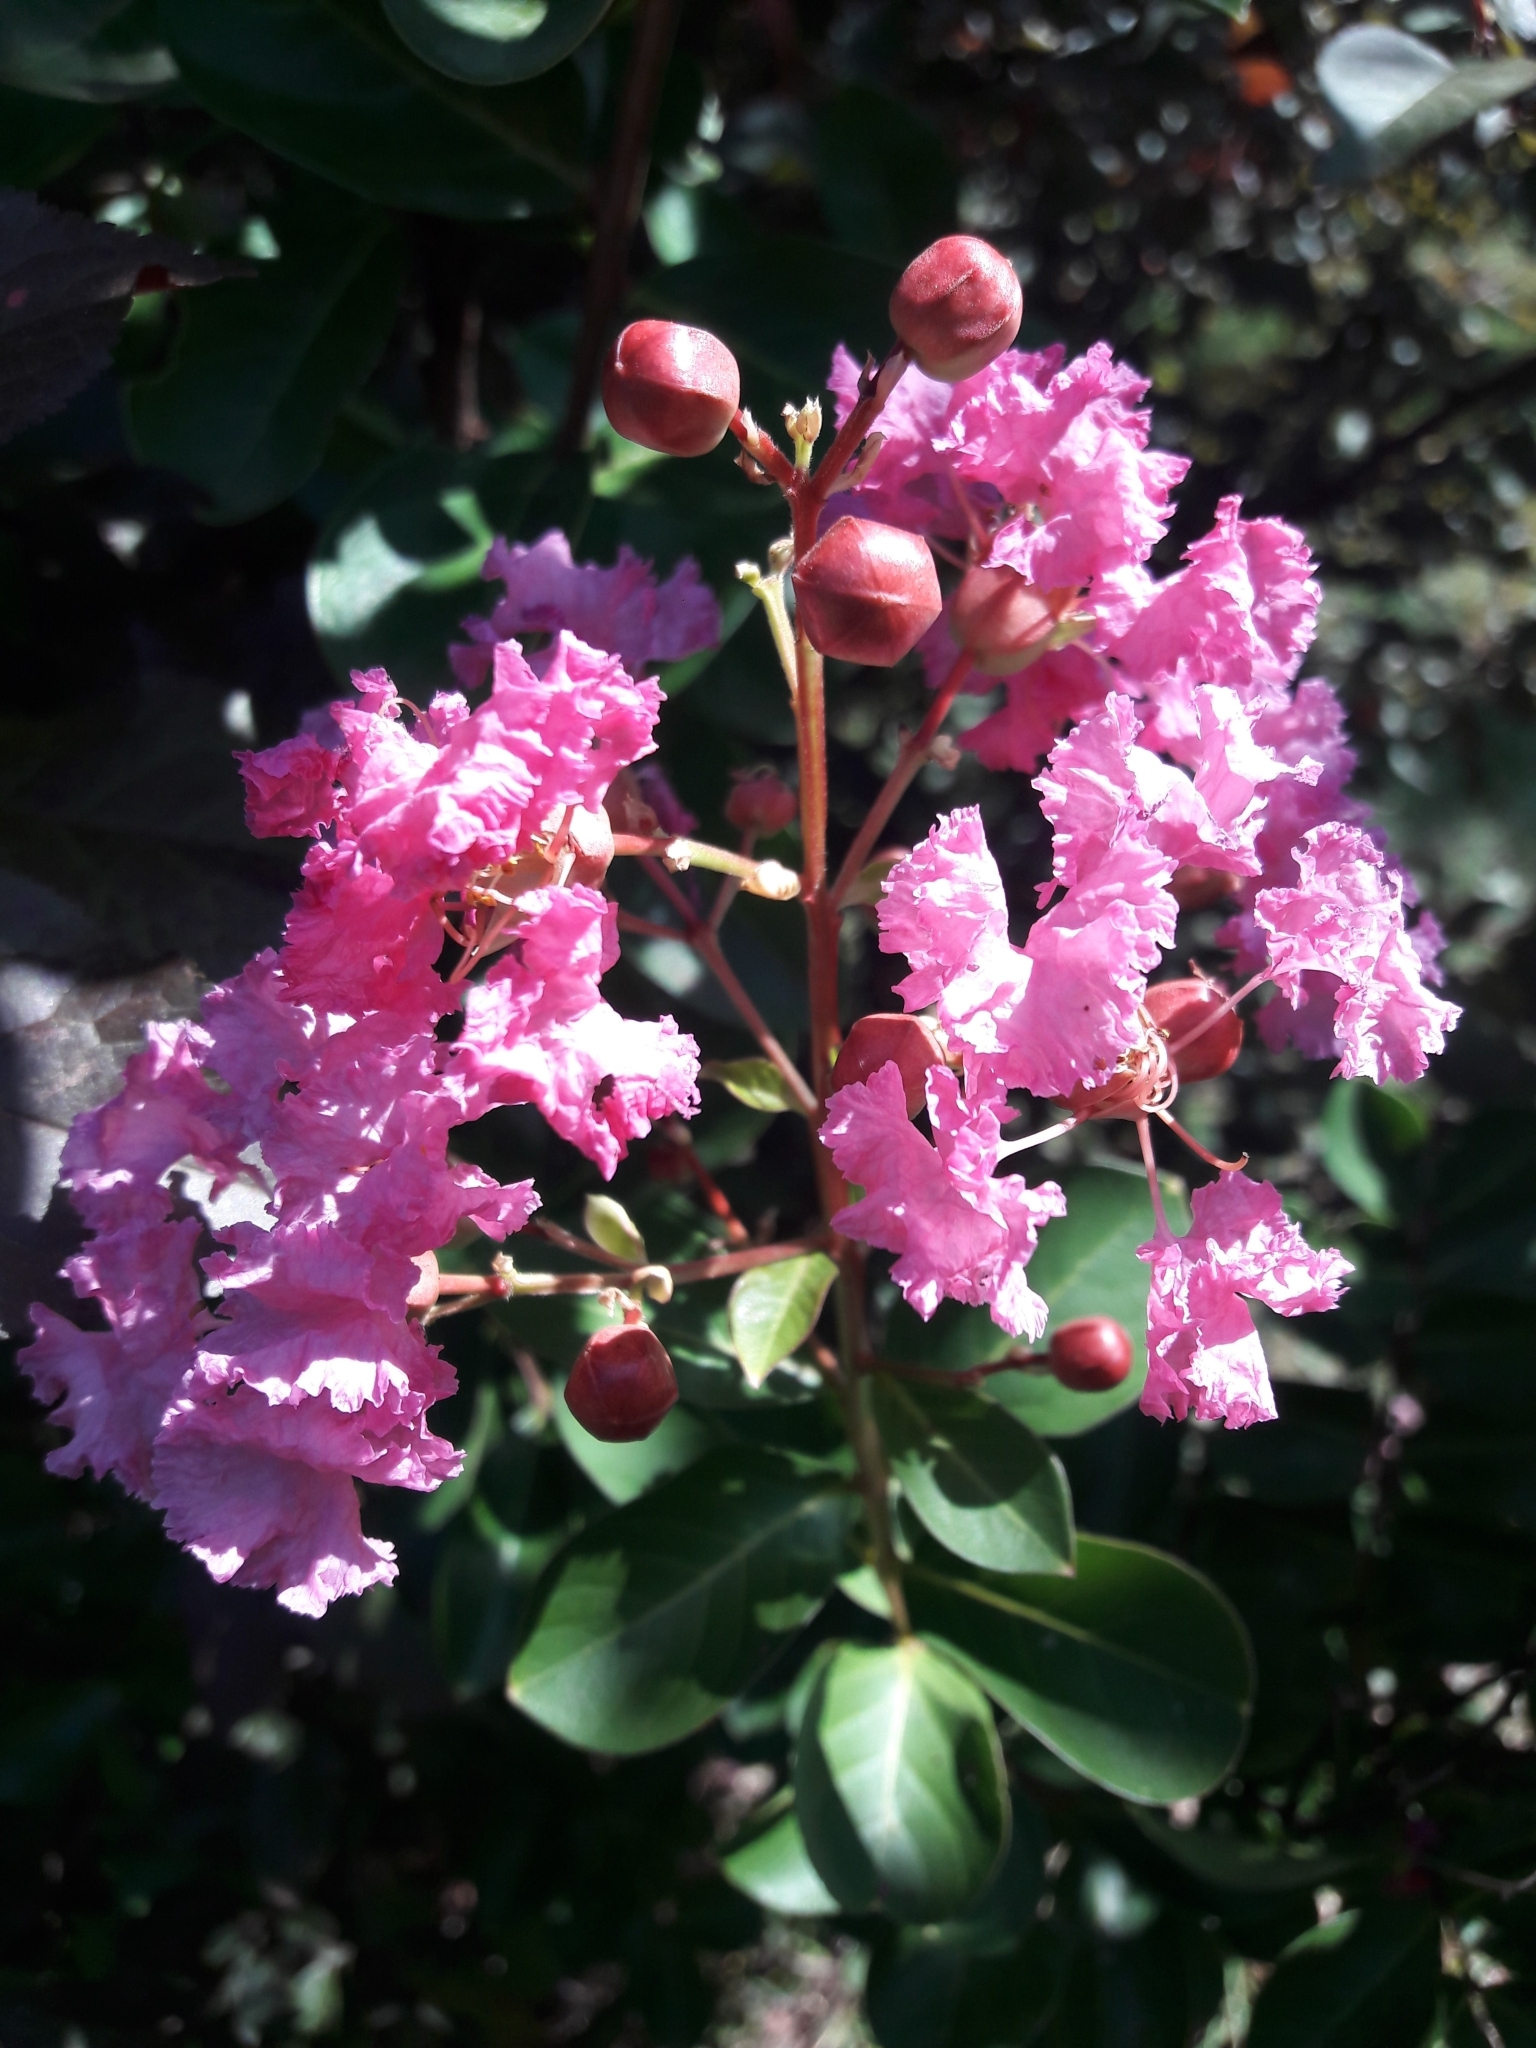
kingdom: Plantae
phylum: Tracheophyta
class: Magnoliopsida
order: Myrtales
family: Lythraceae
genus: Lagerstroemia
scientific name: Lagerstroemia indica
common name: Crape-myrtle
